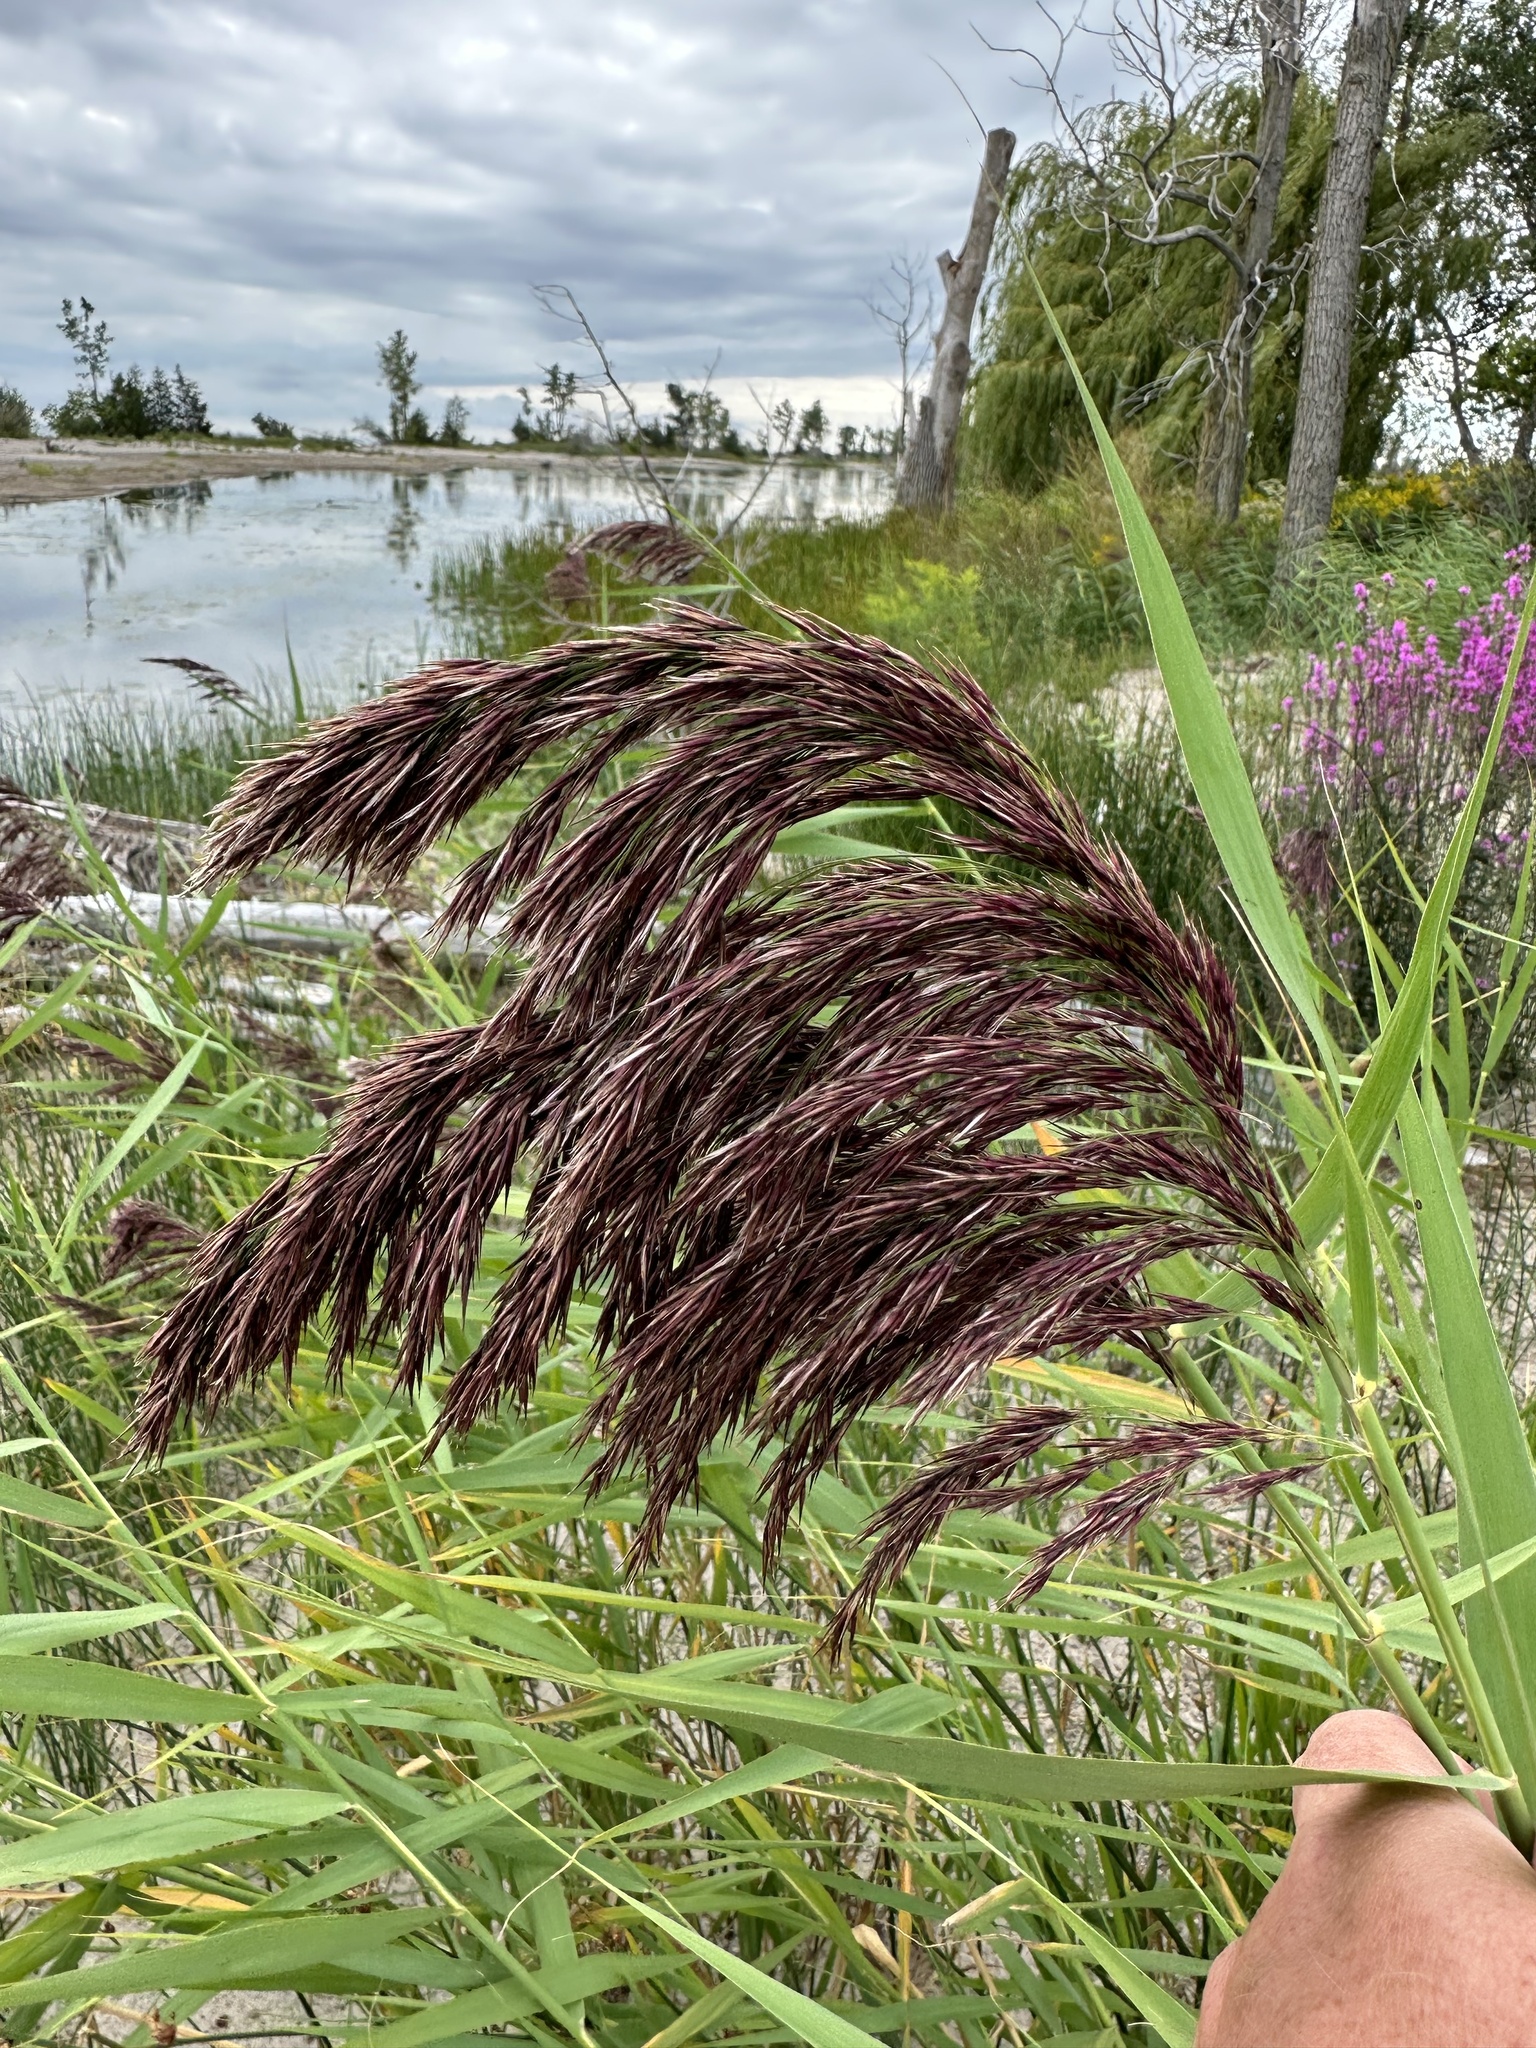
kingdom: Plantae
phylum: Tracheophyta
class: Liliopsida
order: Poales
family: Poaceae
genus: Phragmites
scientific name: Phragmites australis
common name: Common reed
